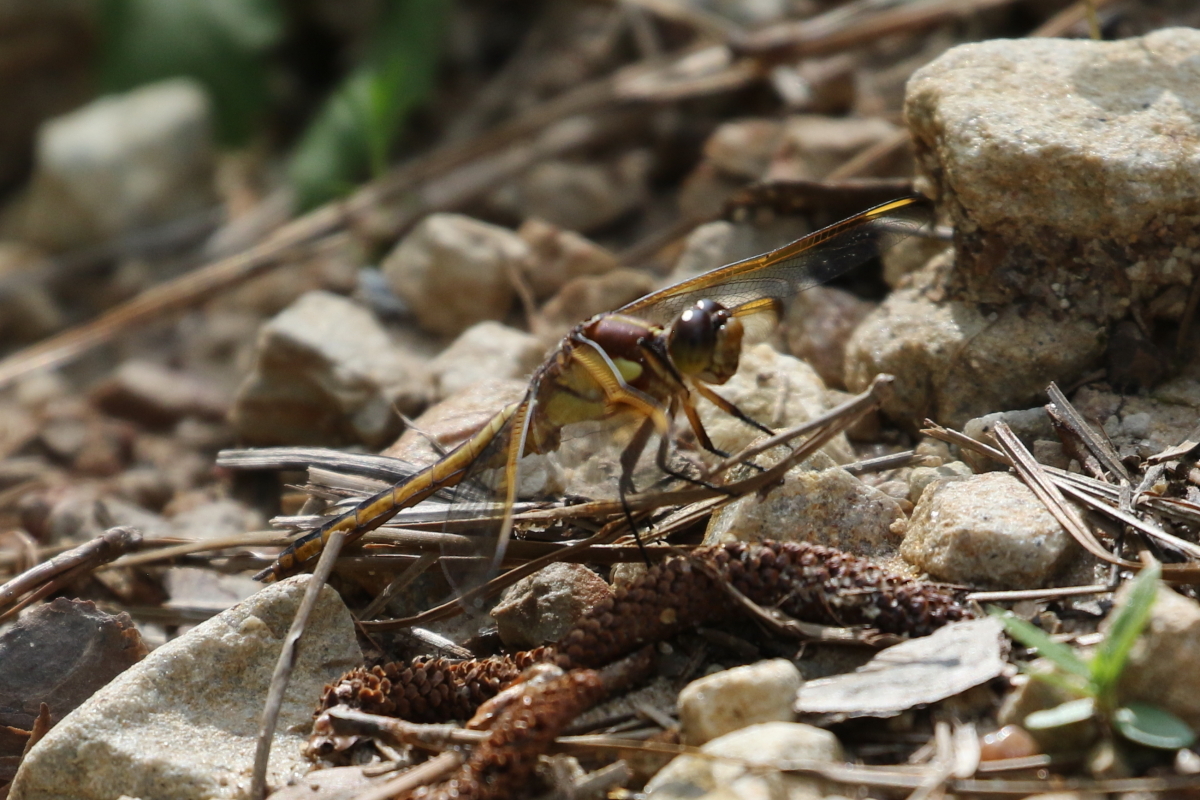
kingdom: Animalia
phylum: Arthropoda
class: Insecta
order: Odonata
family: Libellulidae
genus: Libellula
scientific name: Libellula flavida
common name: Yellow-sided skimmer
